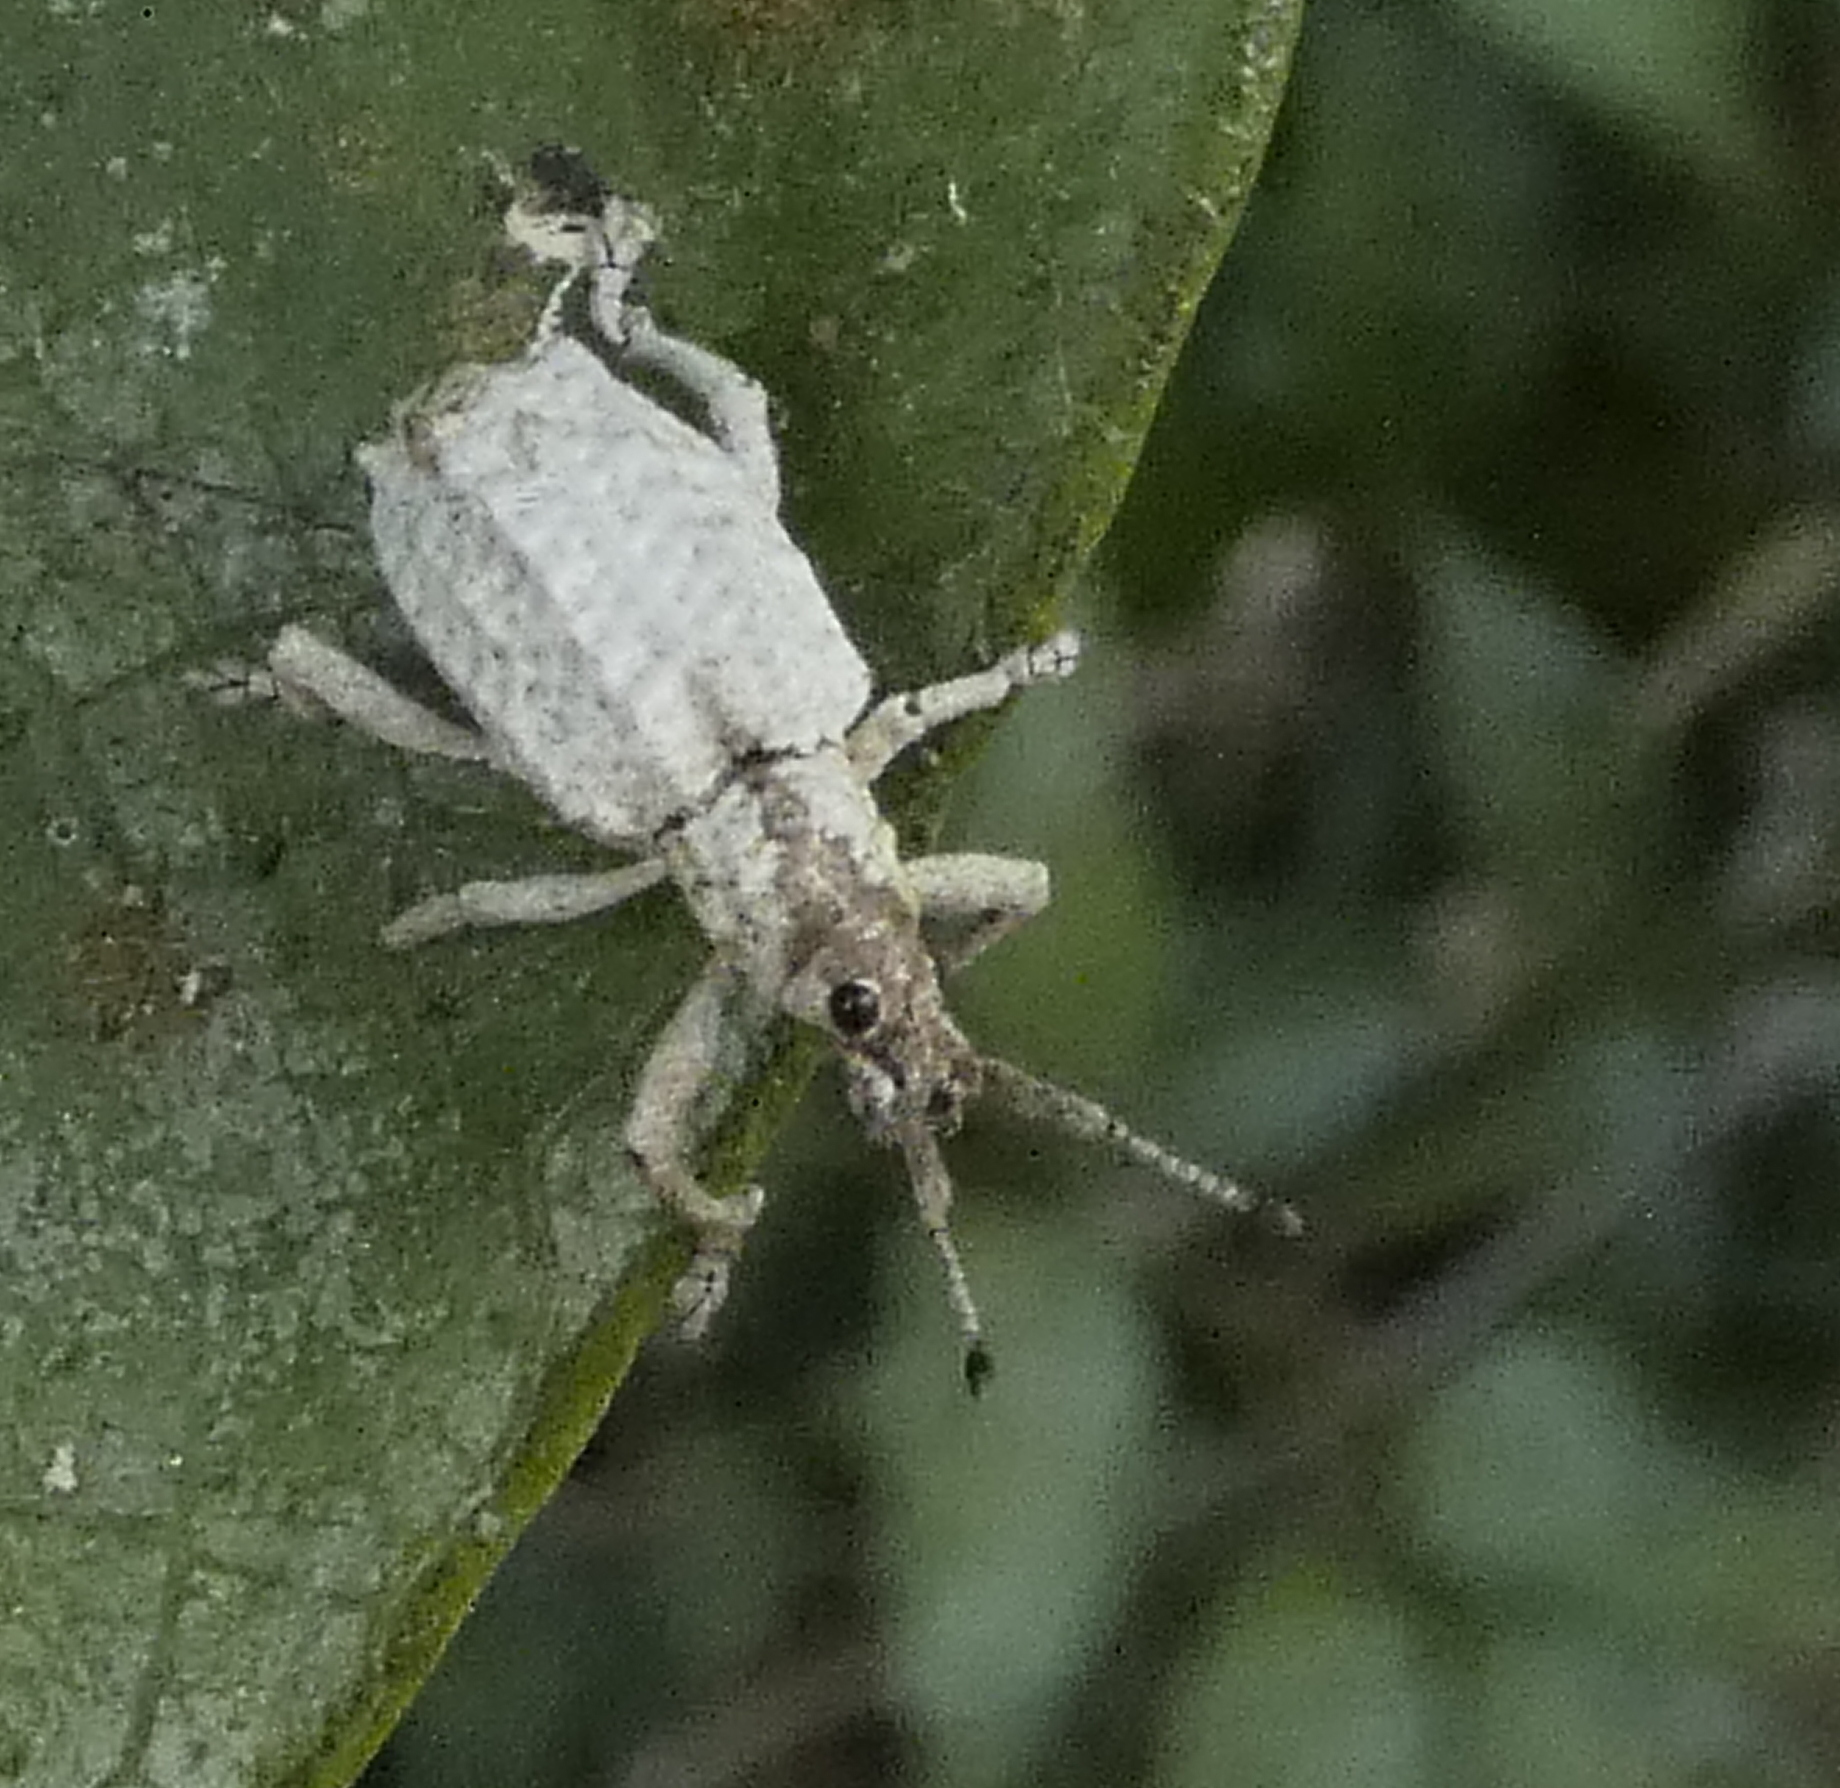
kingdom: Animalia
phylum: Arthropoda
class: Insecta
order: Coleoptera
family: Curculionidae
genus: Compsus
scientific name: Compsus niveus
